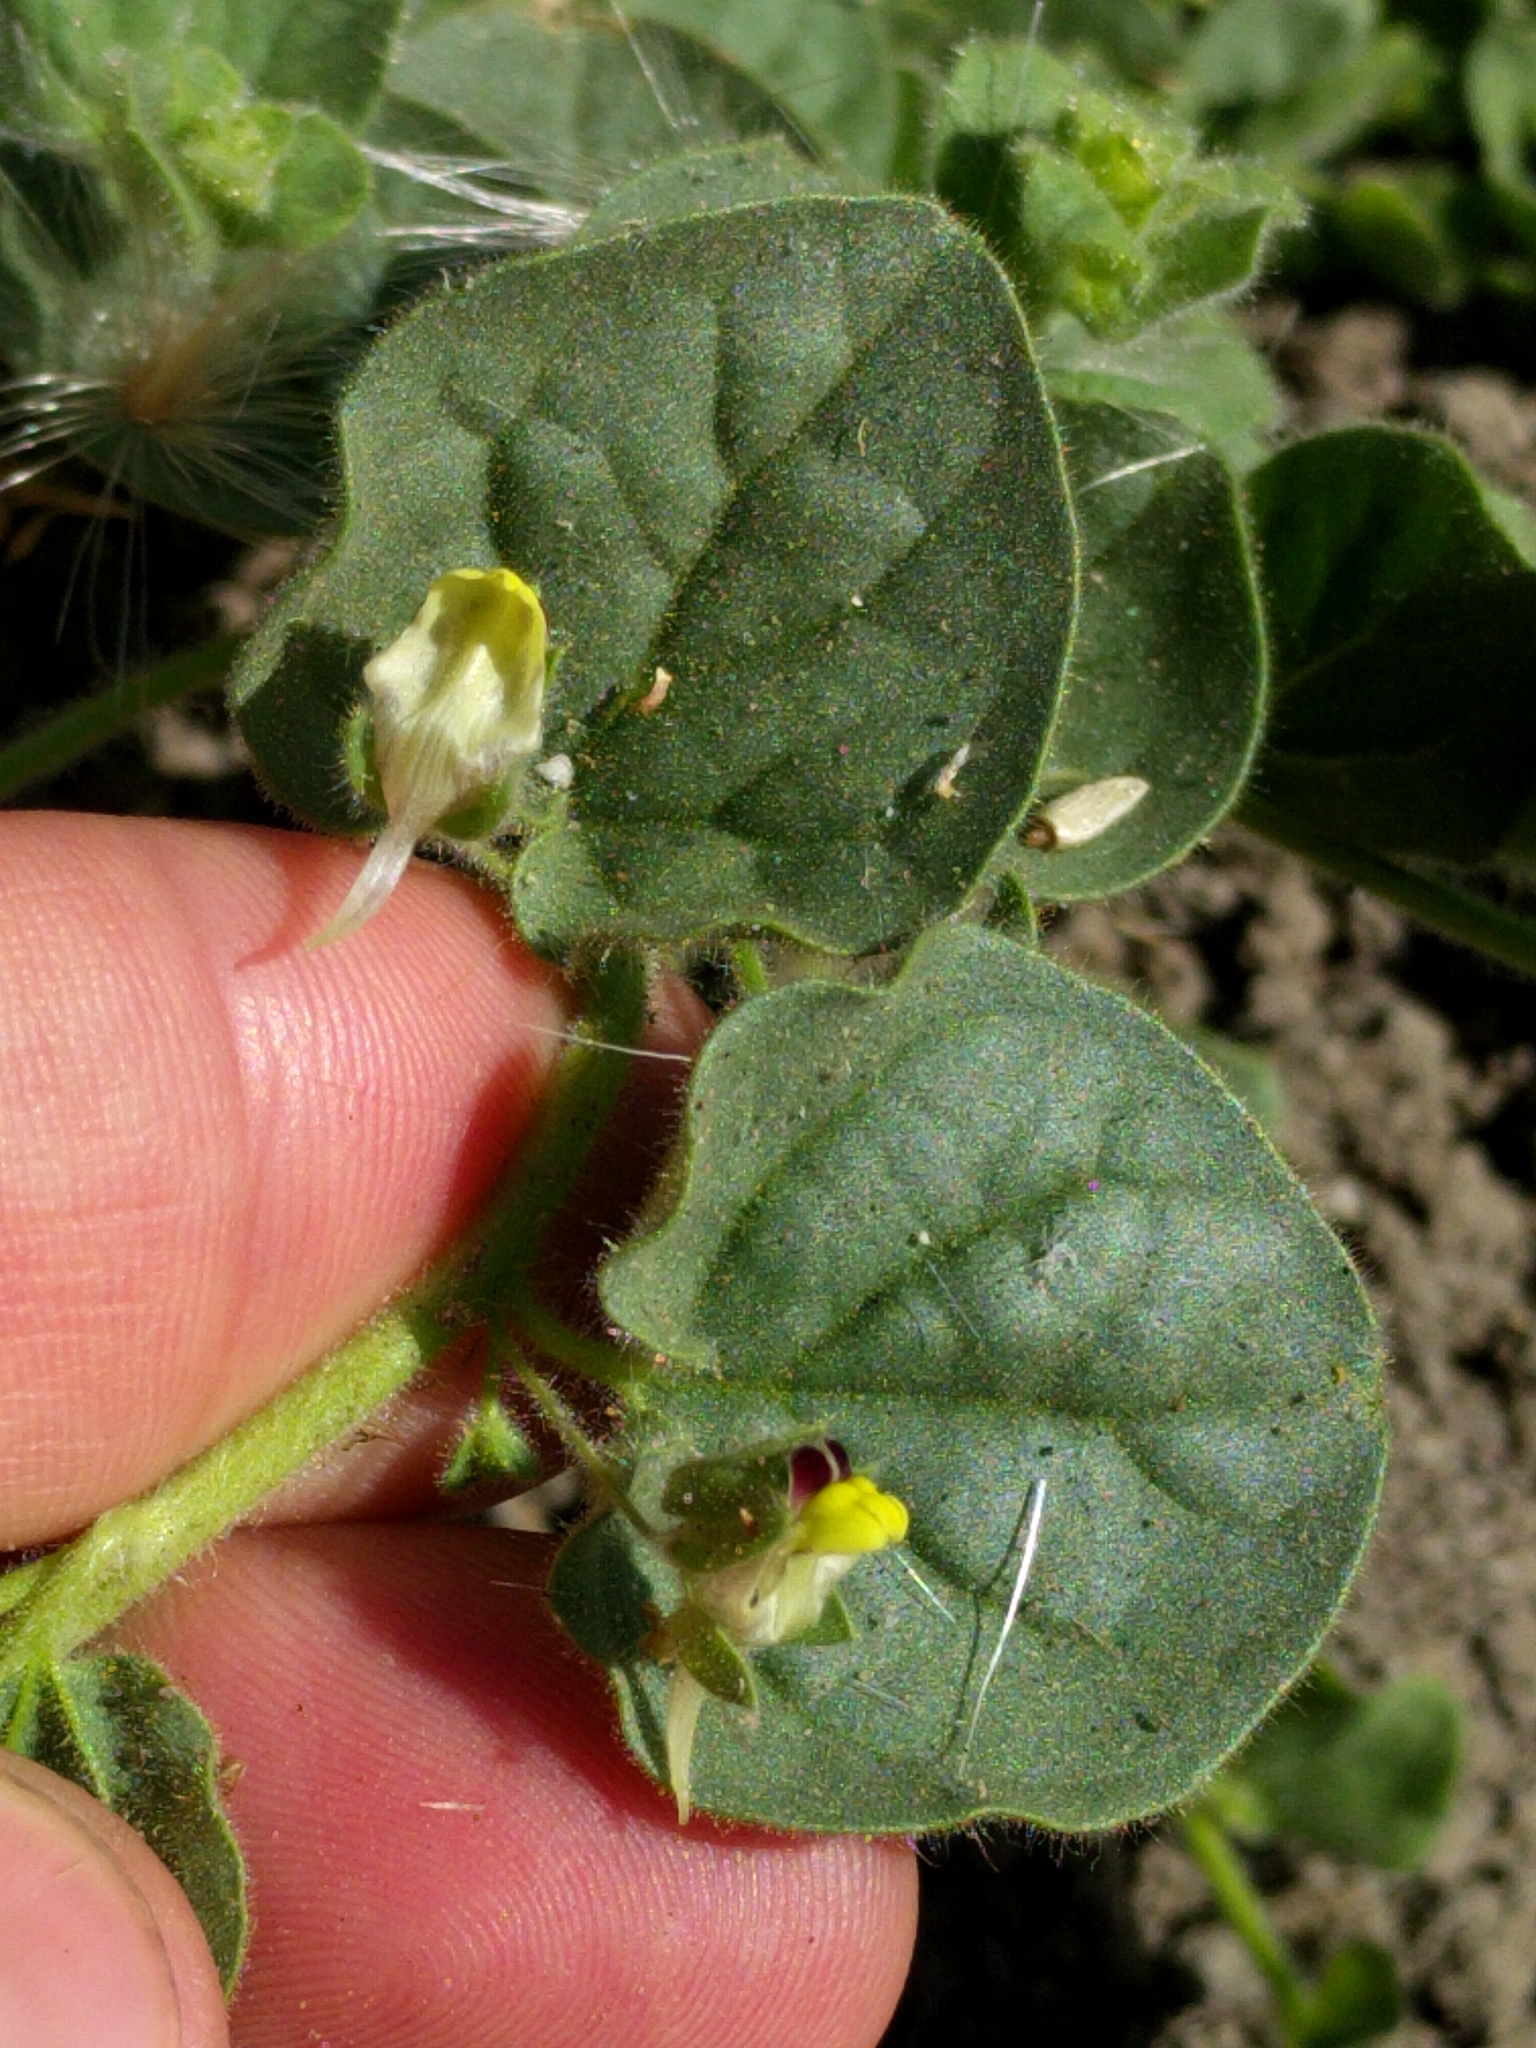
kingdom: Plantae
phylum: Tracheophyta
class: Magnoliopsida
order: Lamiales
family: Plantaginaceae
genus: Kickxia
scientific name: Kickxia spuria
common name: Round-leaved fluellen
